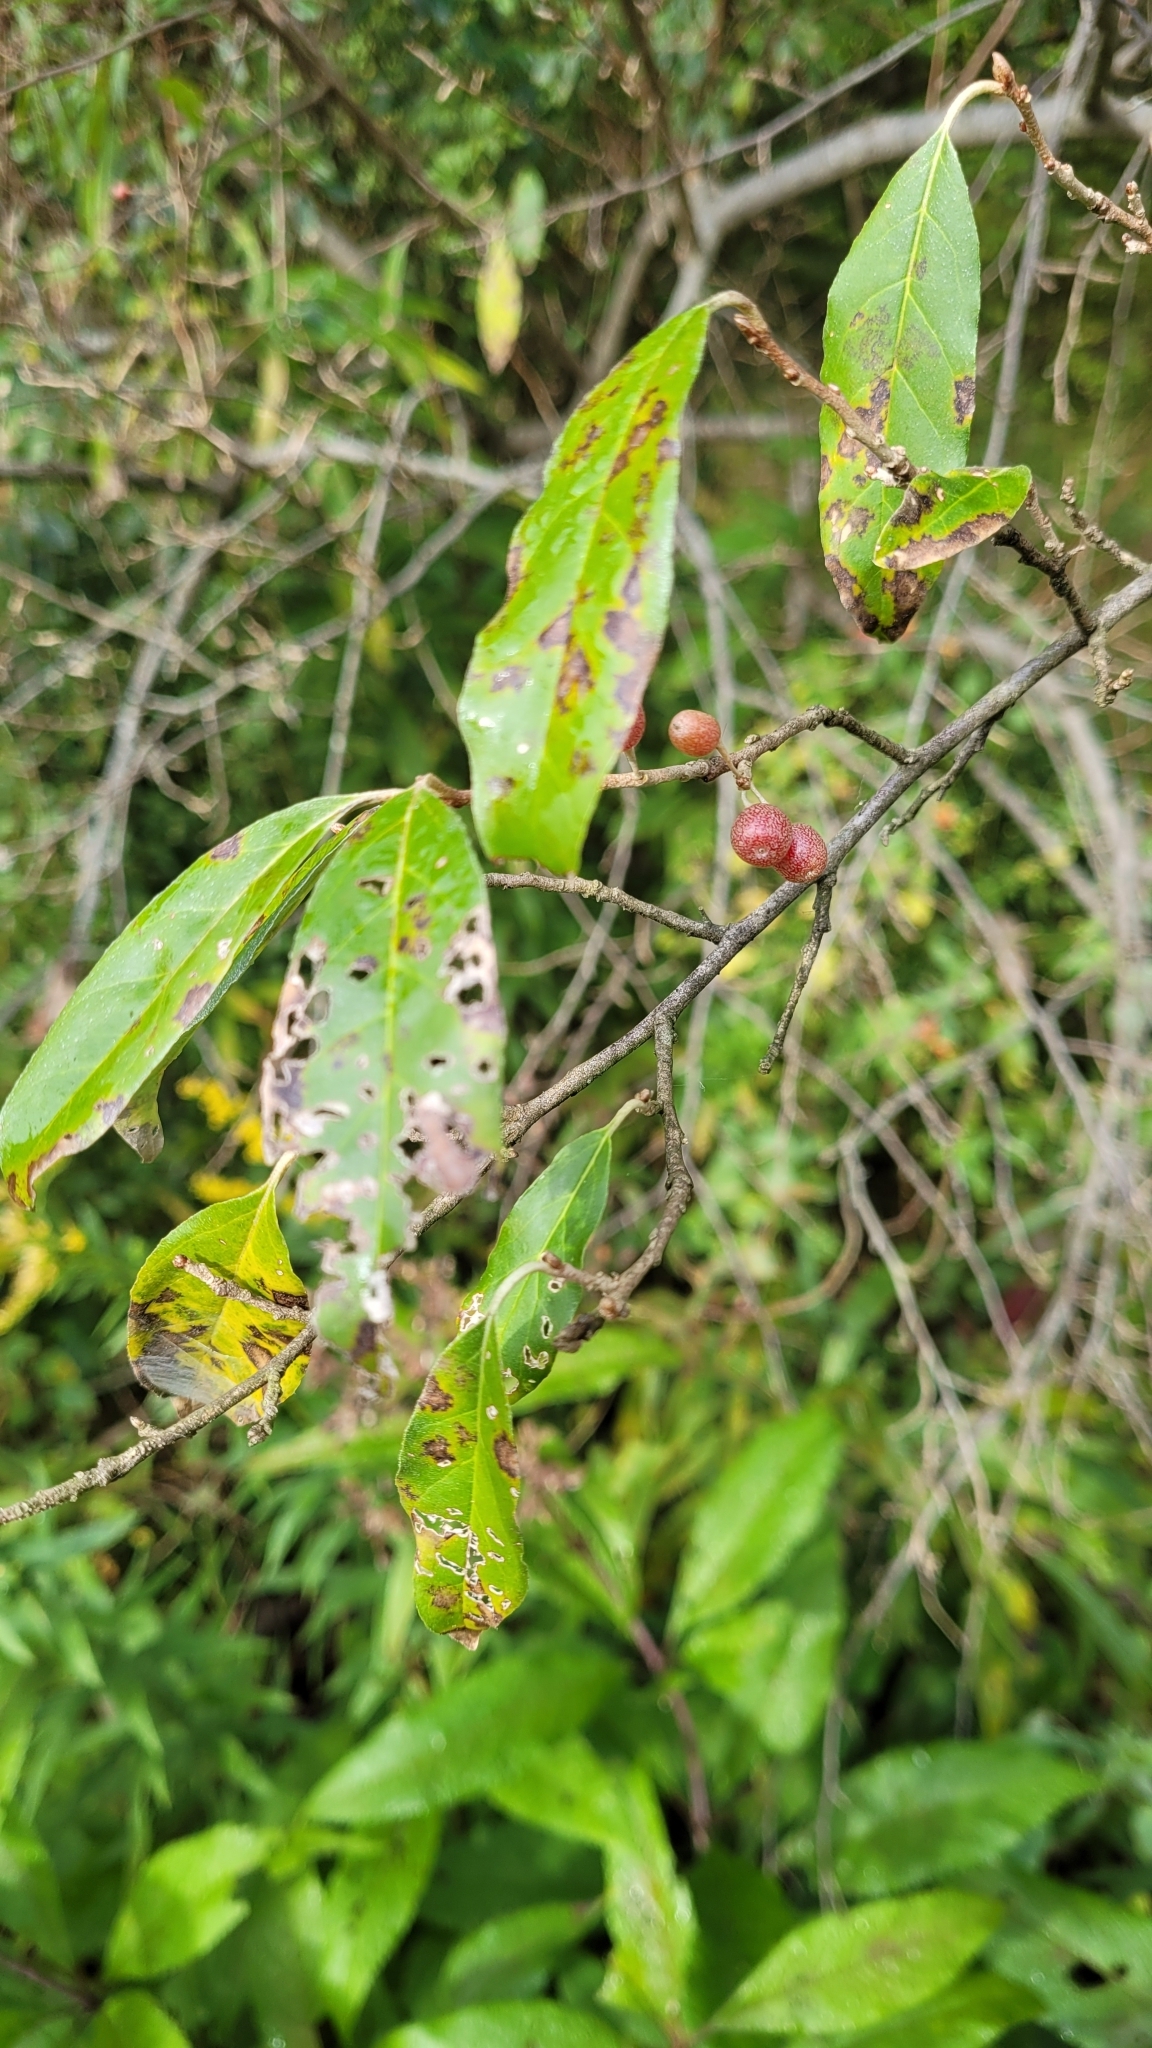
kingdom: Plantae
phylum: Tracheophyta
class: Magnoliopsida
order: Rosales
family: Elaeagnaceae
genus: Elaeagnus
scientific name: Elaeagnus umbellata
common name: Autumn olive
